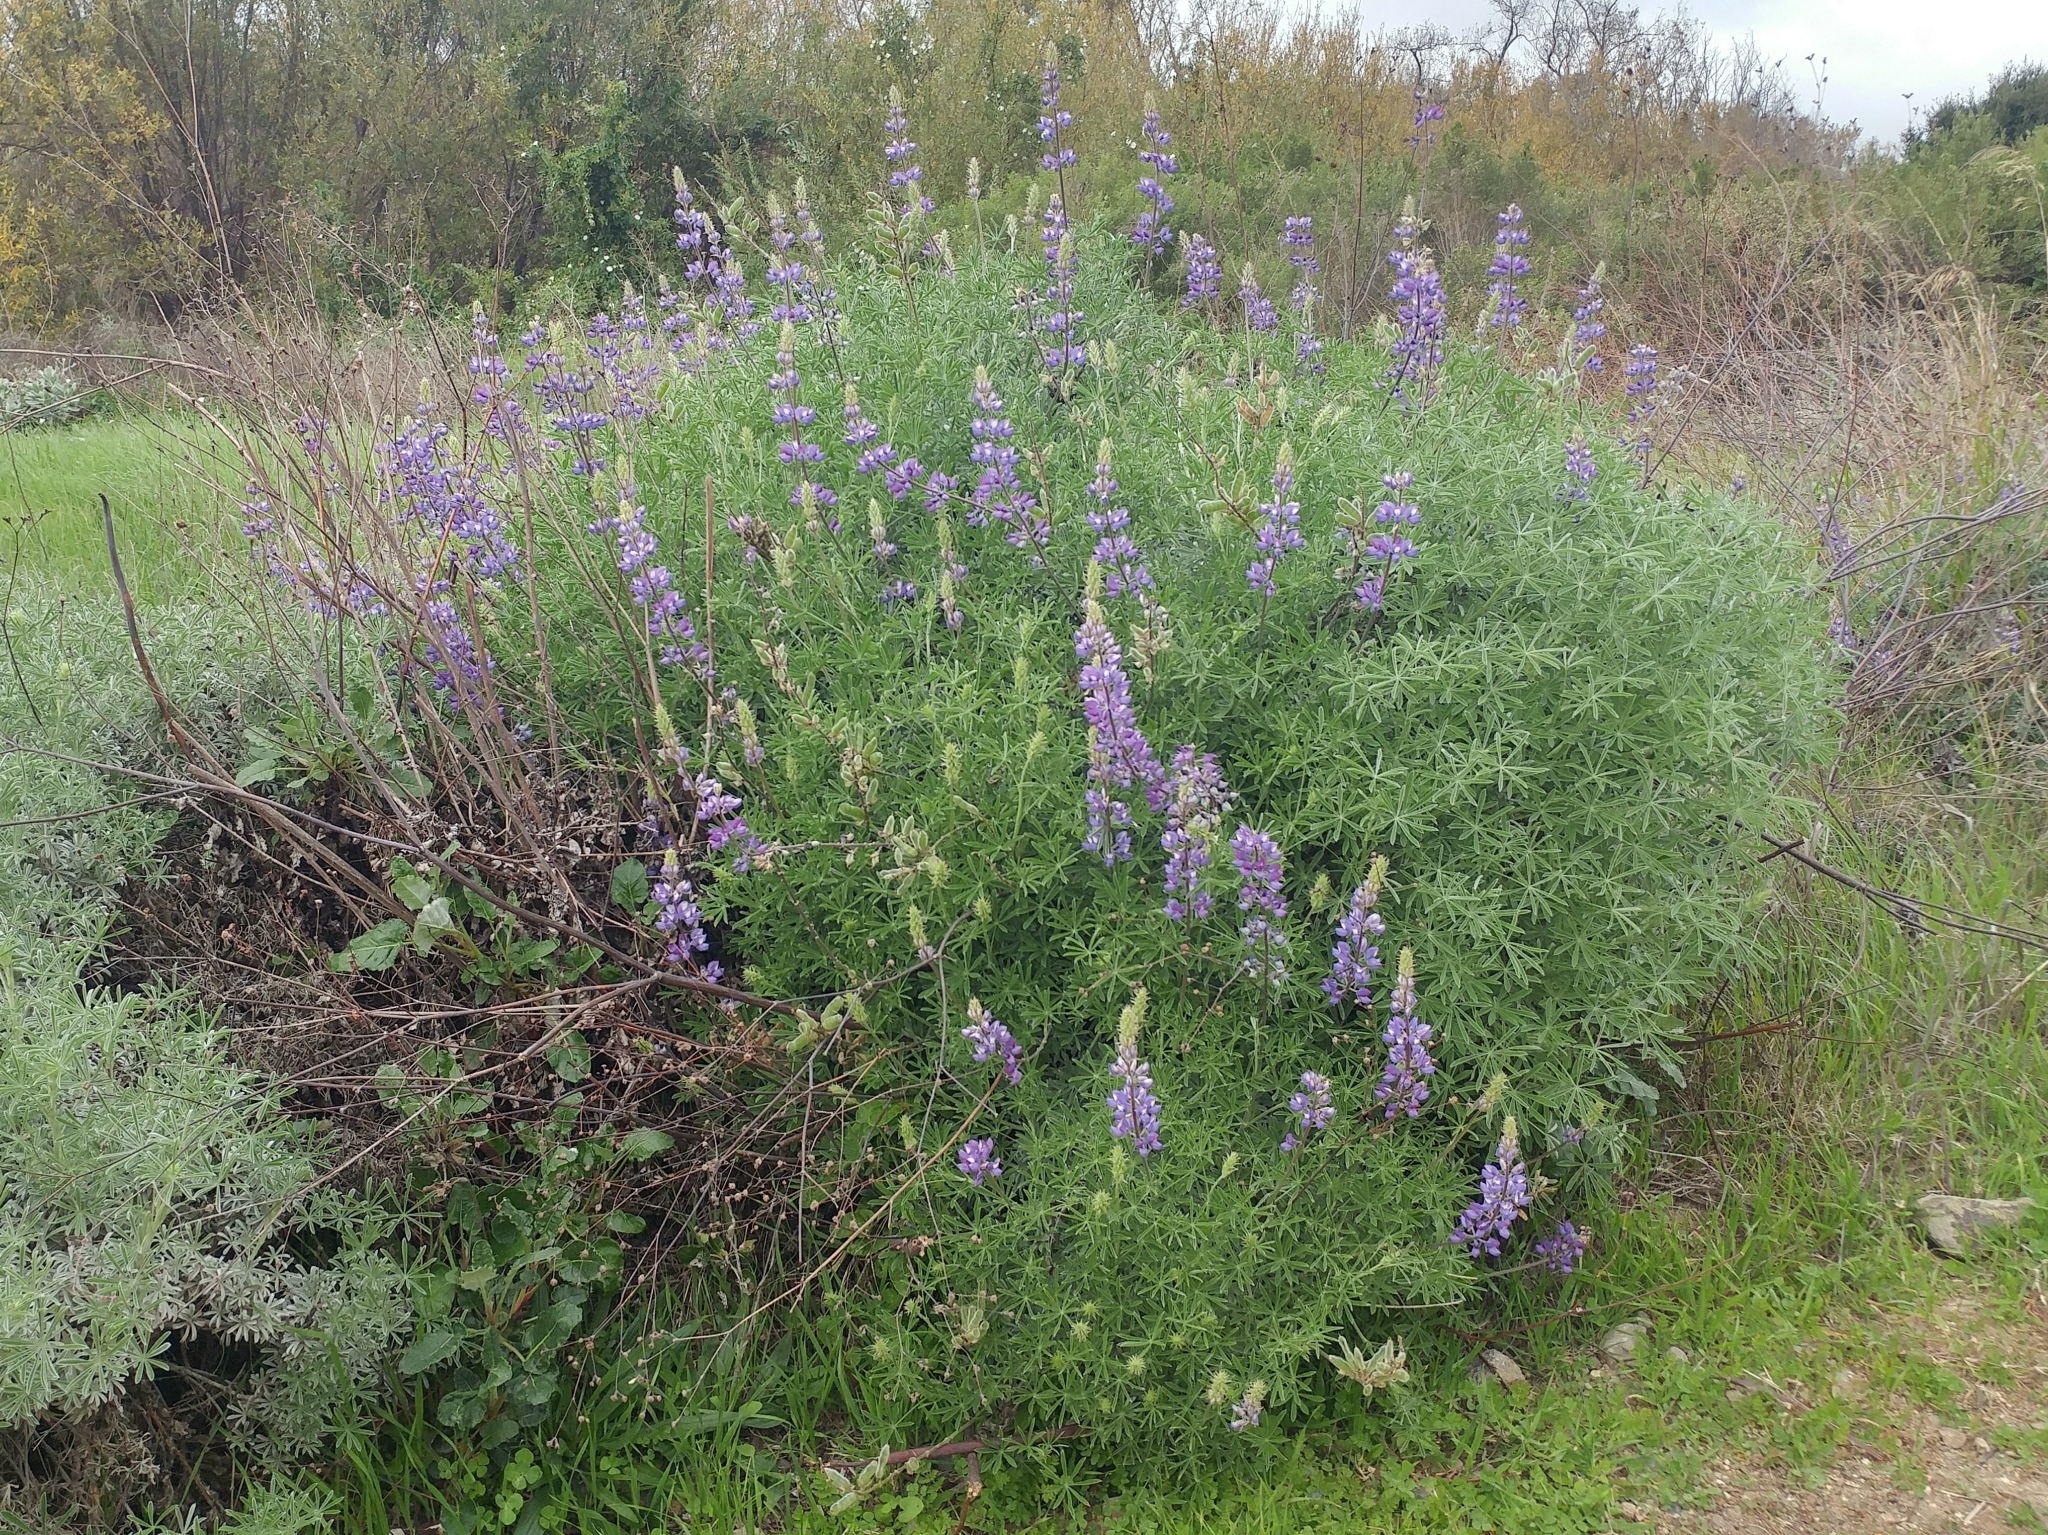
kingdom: Plantae
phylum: Tracheophyta
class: Magnoliopsida
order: Fabales
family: Fabaceae
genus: Lupinus
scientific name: Lupinus albifrons
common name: Foothill lupine
